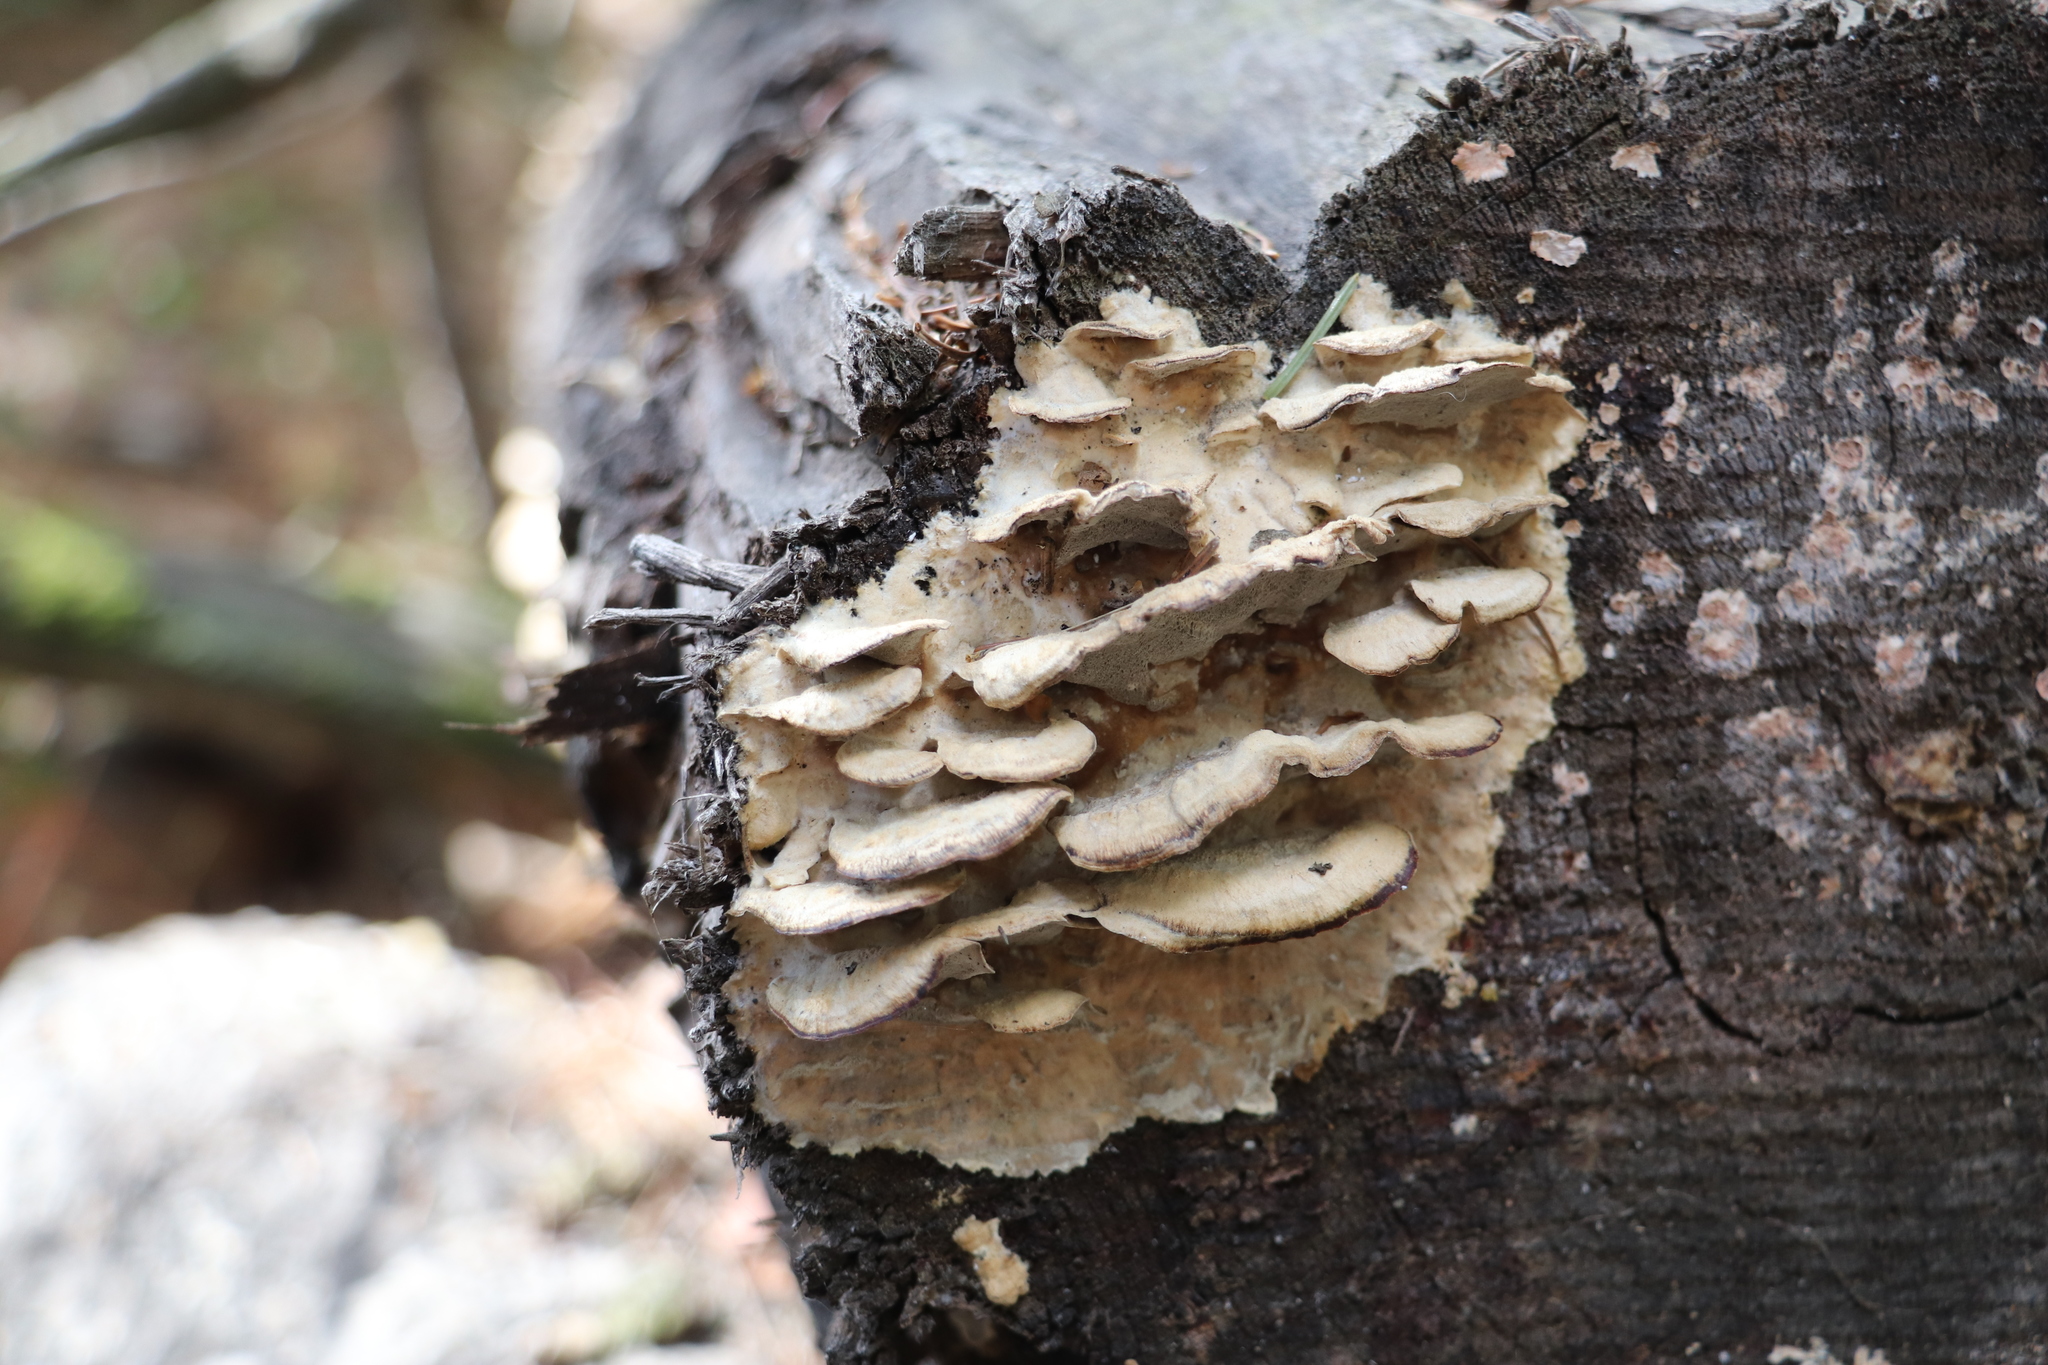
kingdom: Fungi
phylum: Basidiomycota
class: Agaricomycetes
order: Polyporales
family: Phanerochaetaceae
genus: Bjerkandera
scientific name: Bjerkandera adusta
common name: Smoky bracket
